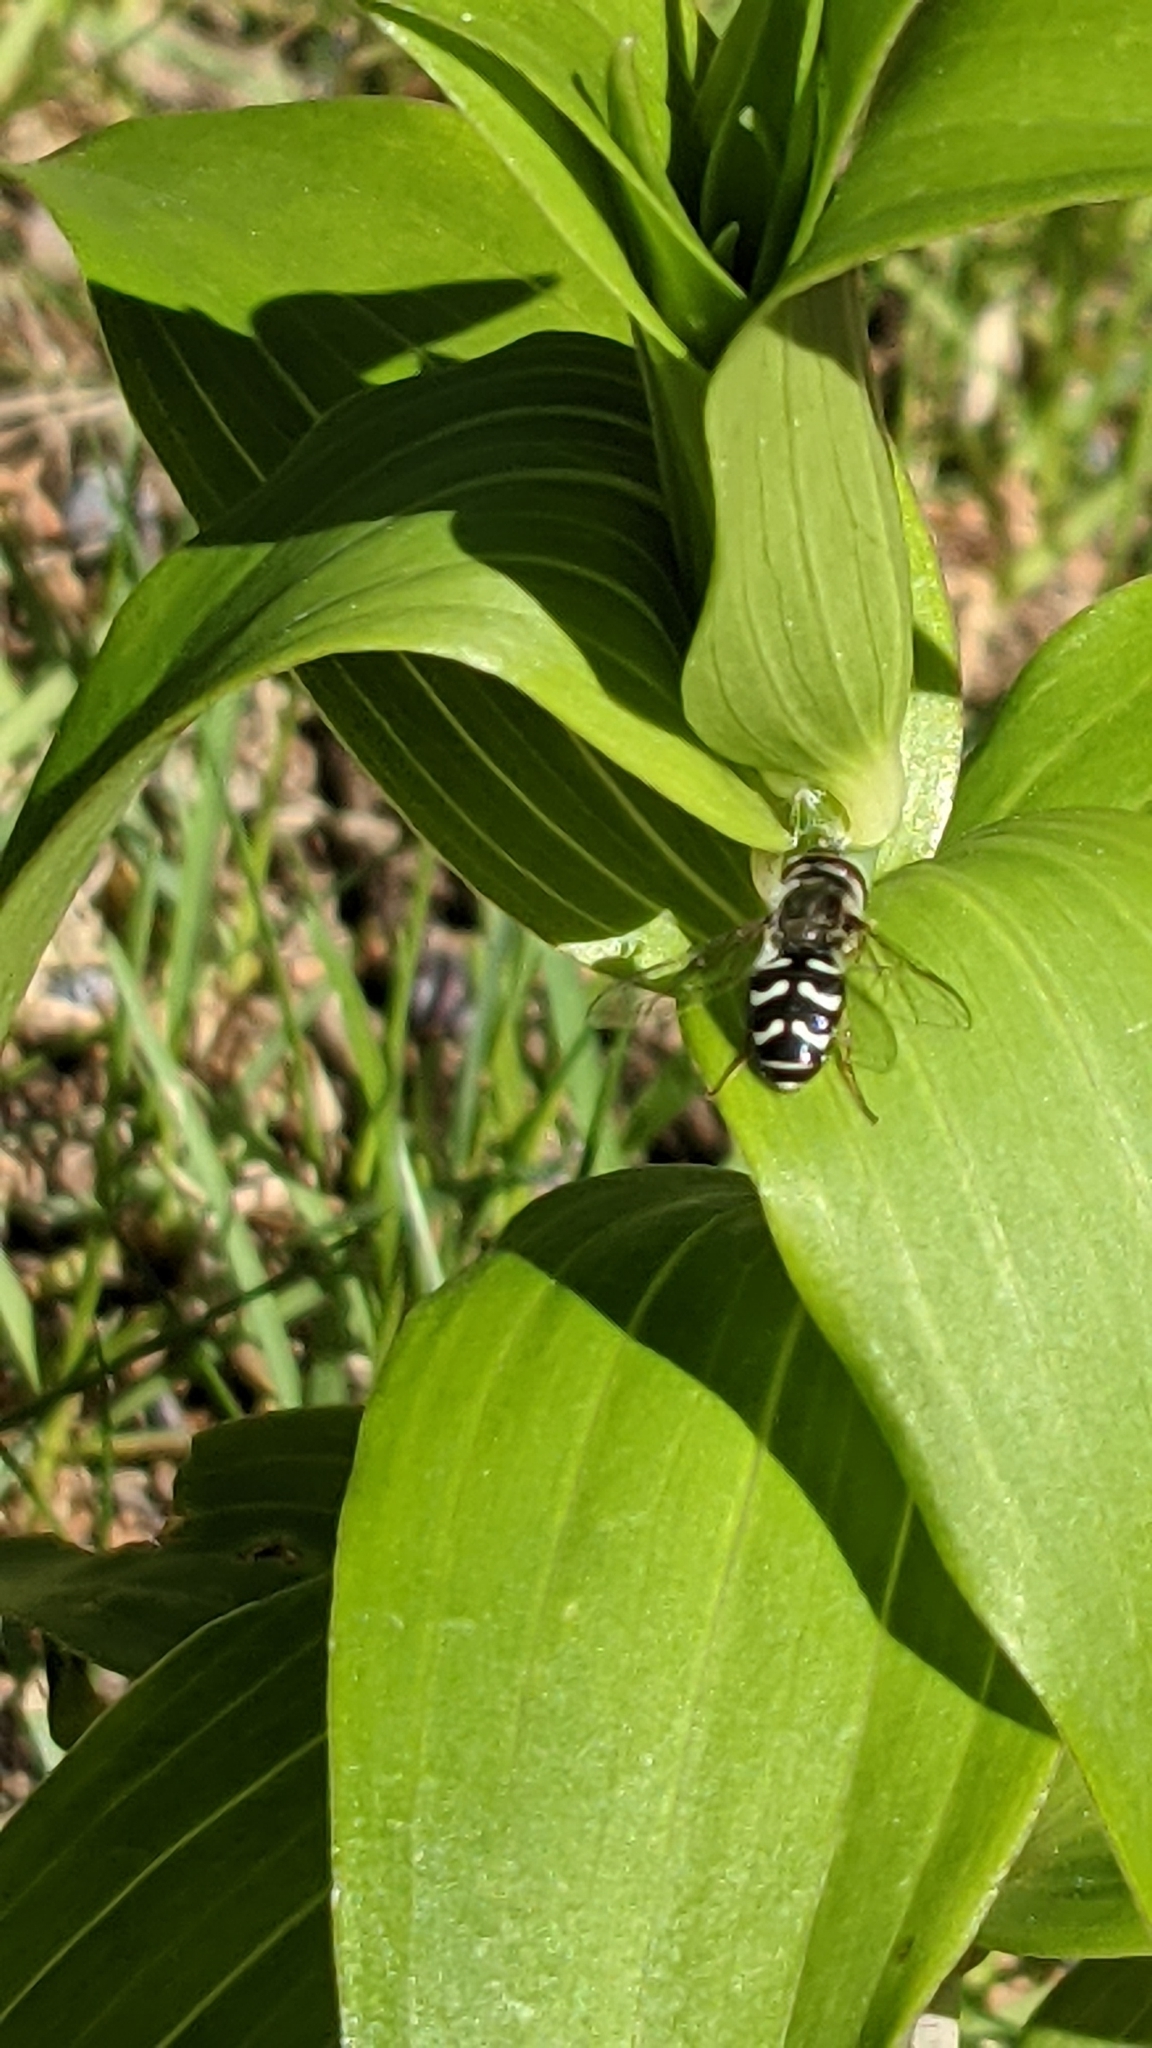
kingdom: Animalia
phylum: Arthropoda
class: Insecta
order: Diptera
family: Syrphidae
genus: Scaeva
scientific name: Scaeva affinis
